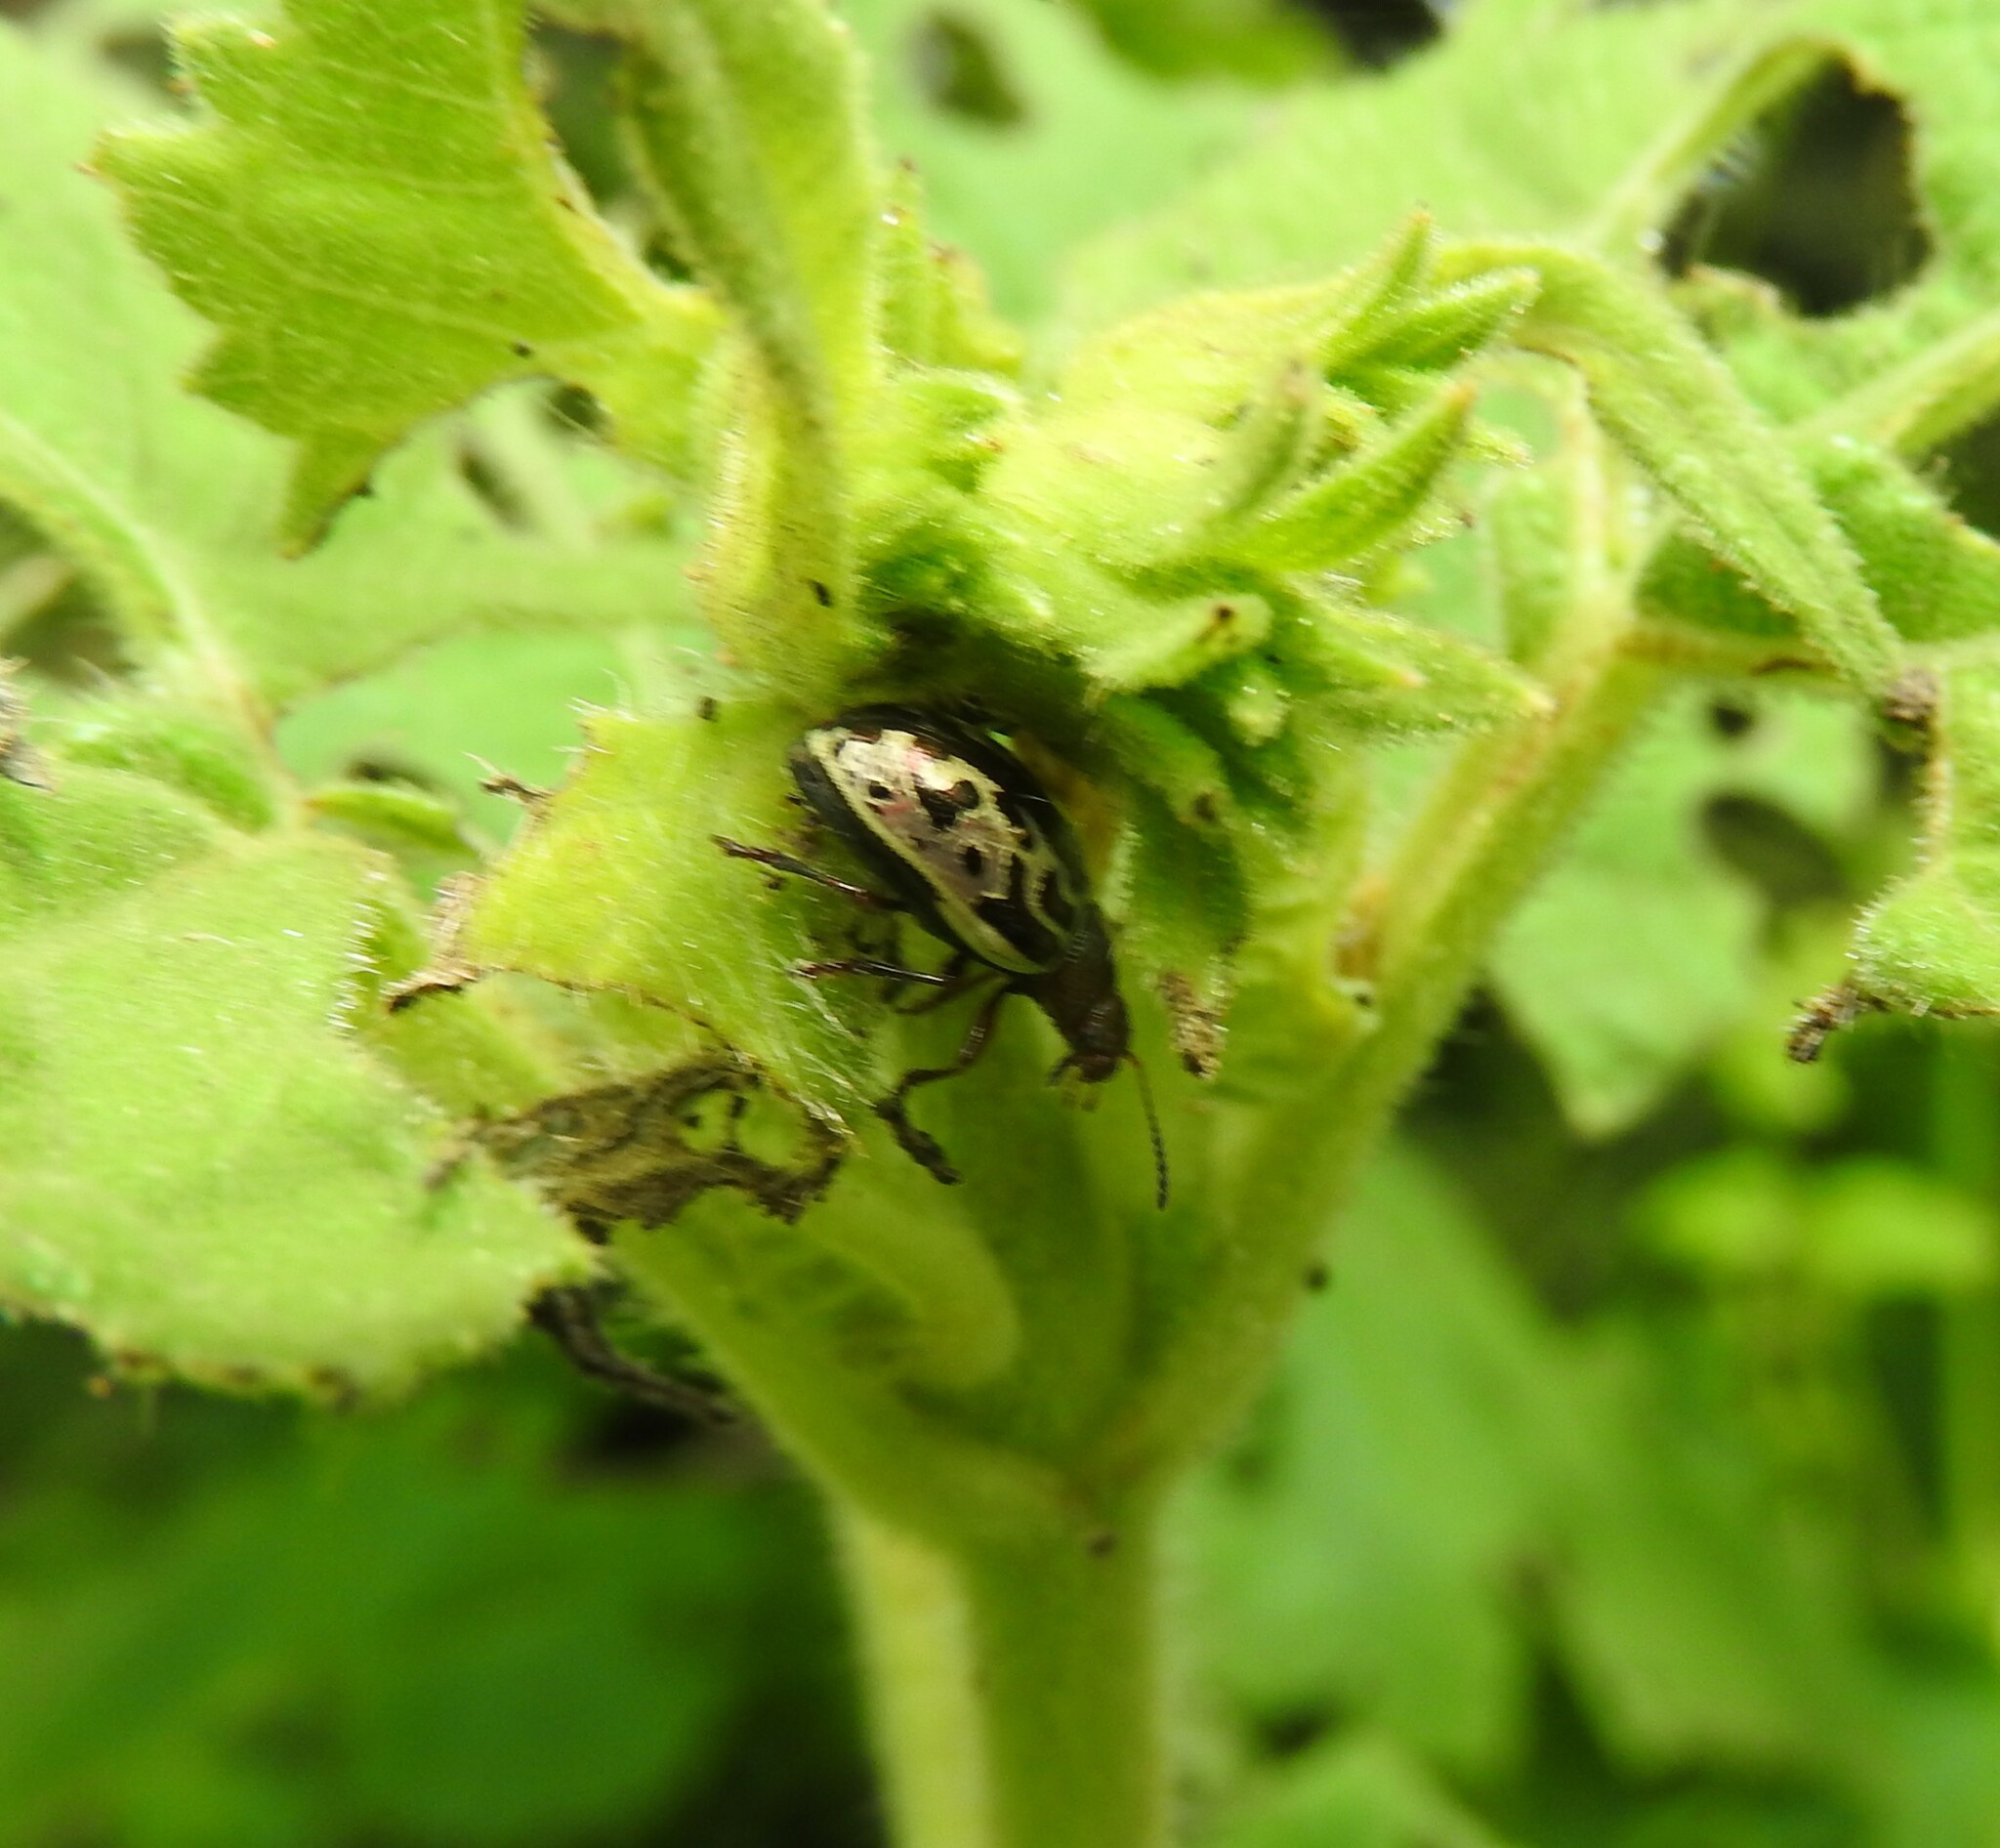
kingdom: Animalia
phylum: Arthropoda
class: Insecta
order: Coleoptera
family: Chrysomelidae
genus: Calligrapha
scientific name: Calligrapha
